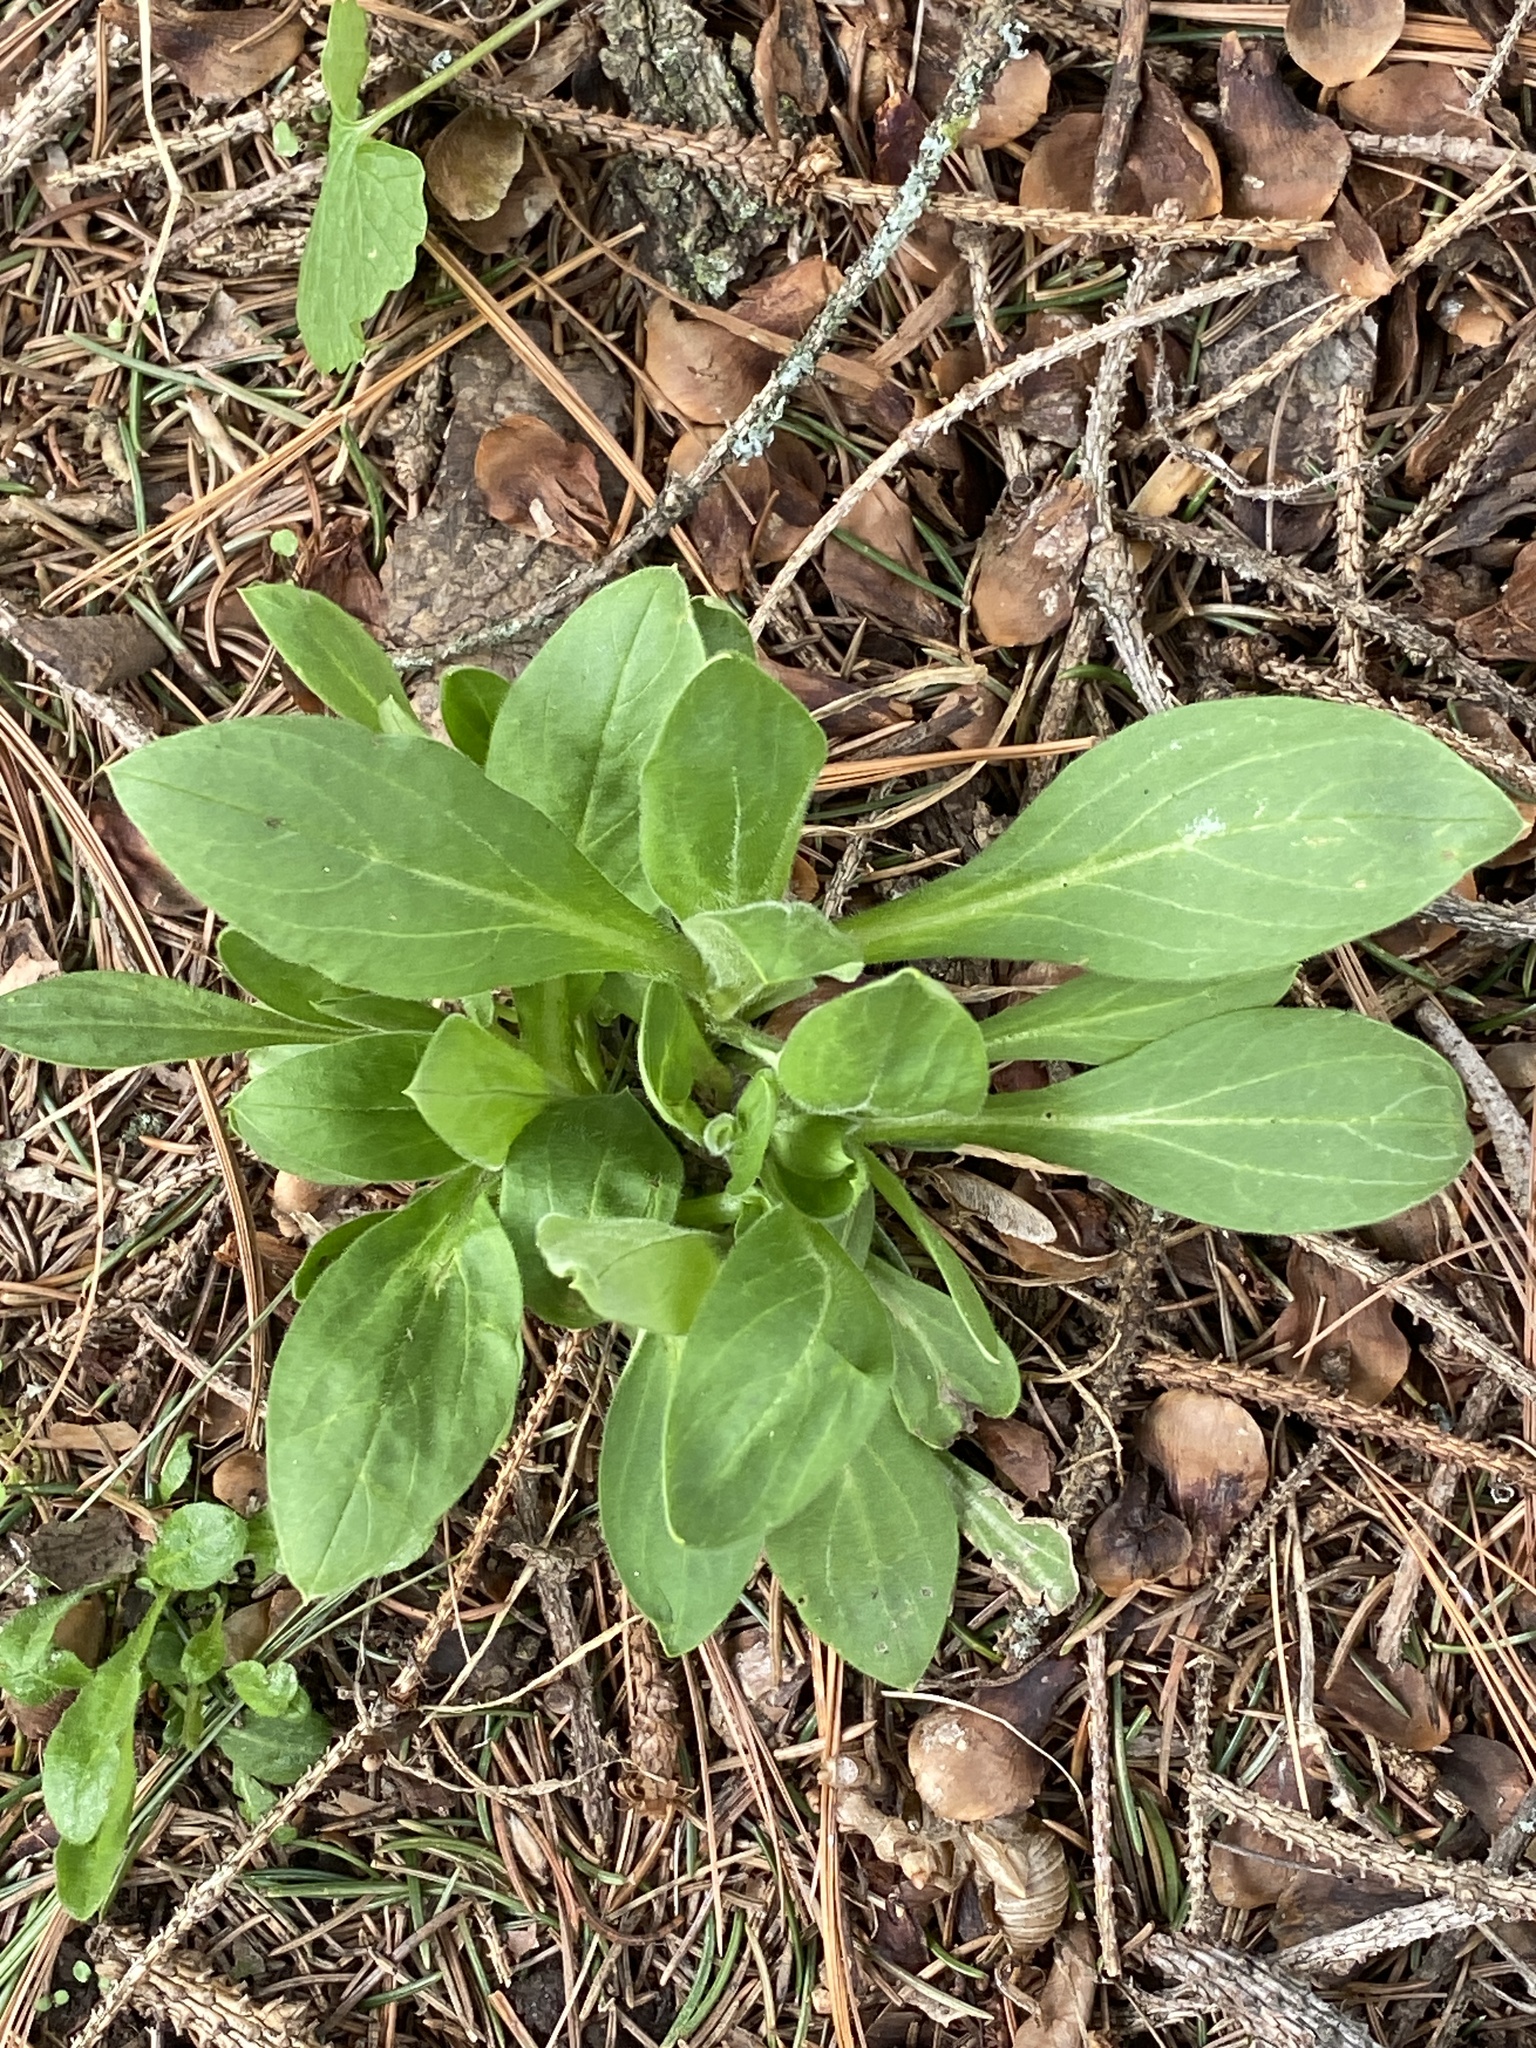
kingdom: Plantae
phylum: Tracheophyta
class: Magnoliopsida
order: Caryophyllales
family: Caryophyllaceae
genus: Silene
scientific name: Silene latifolia
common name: White campion
